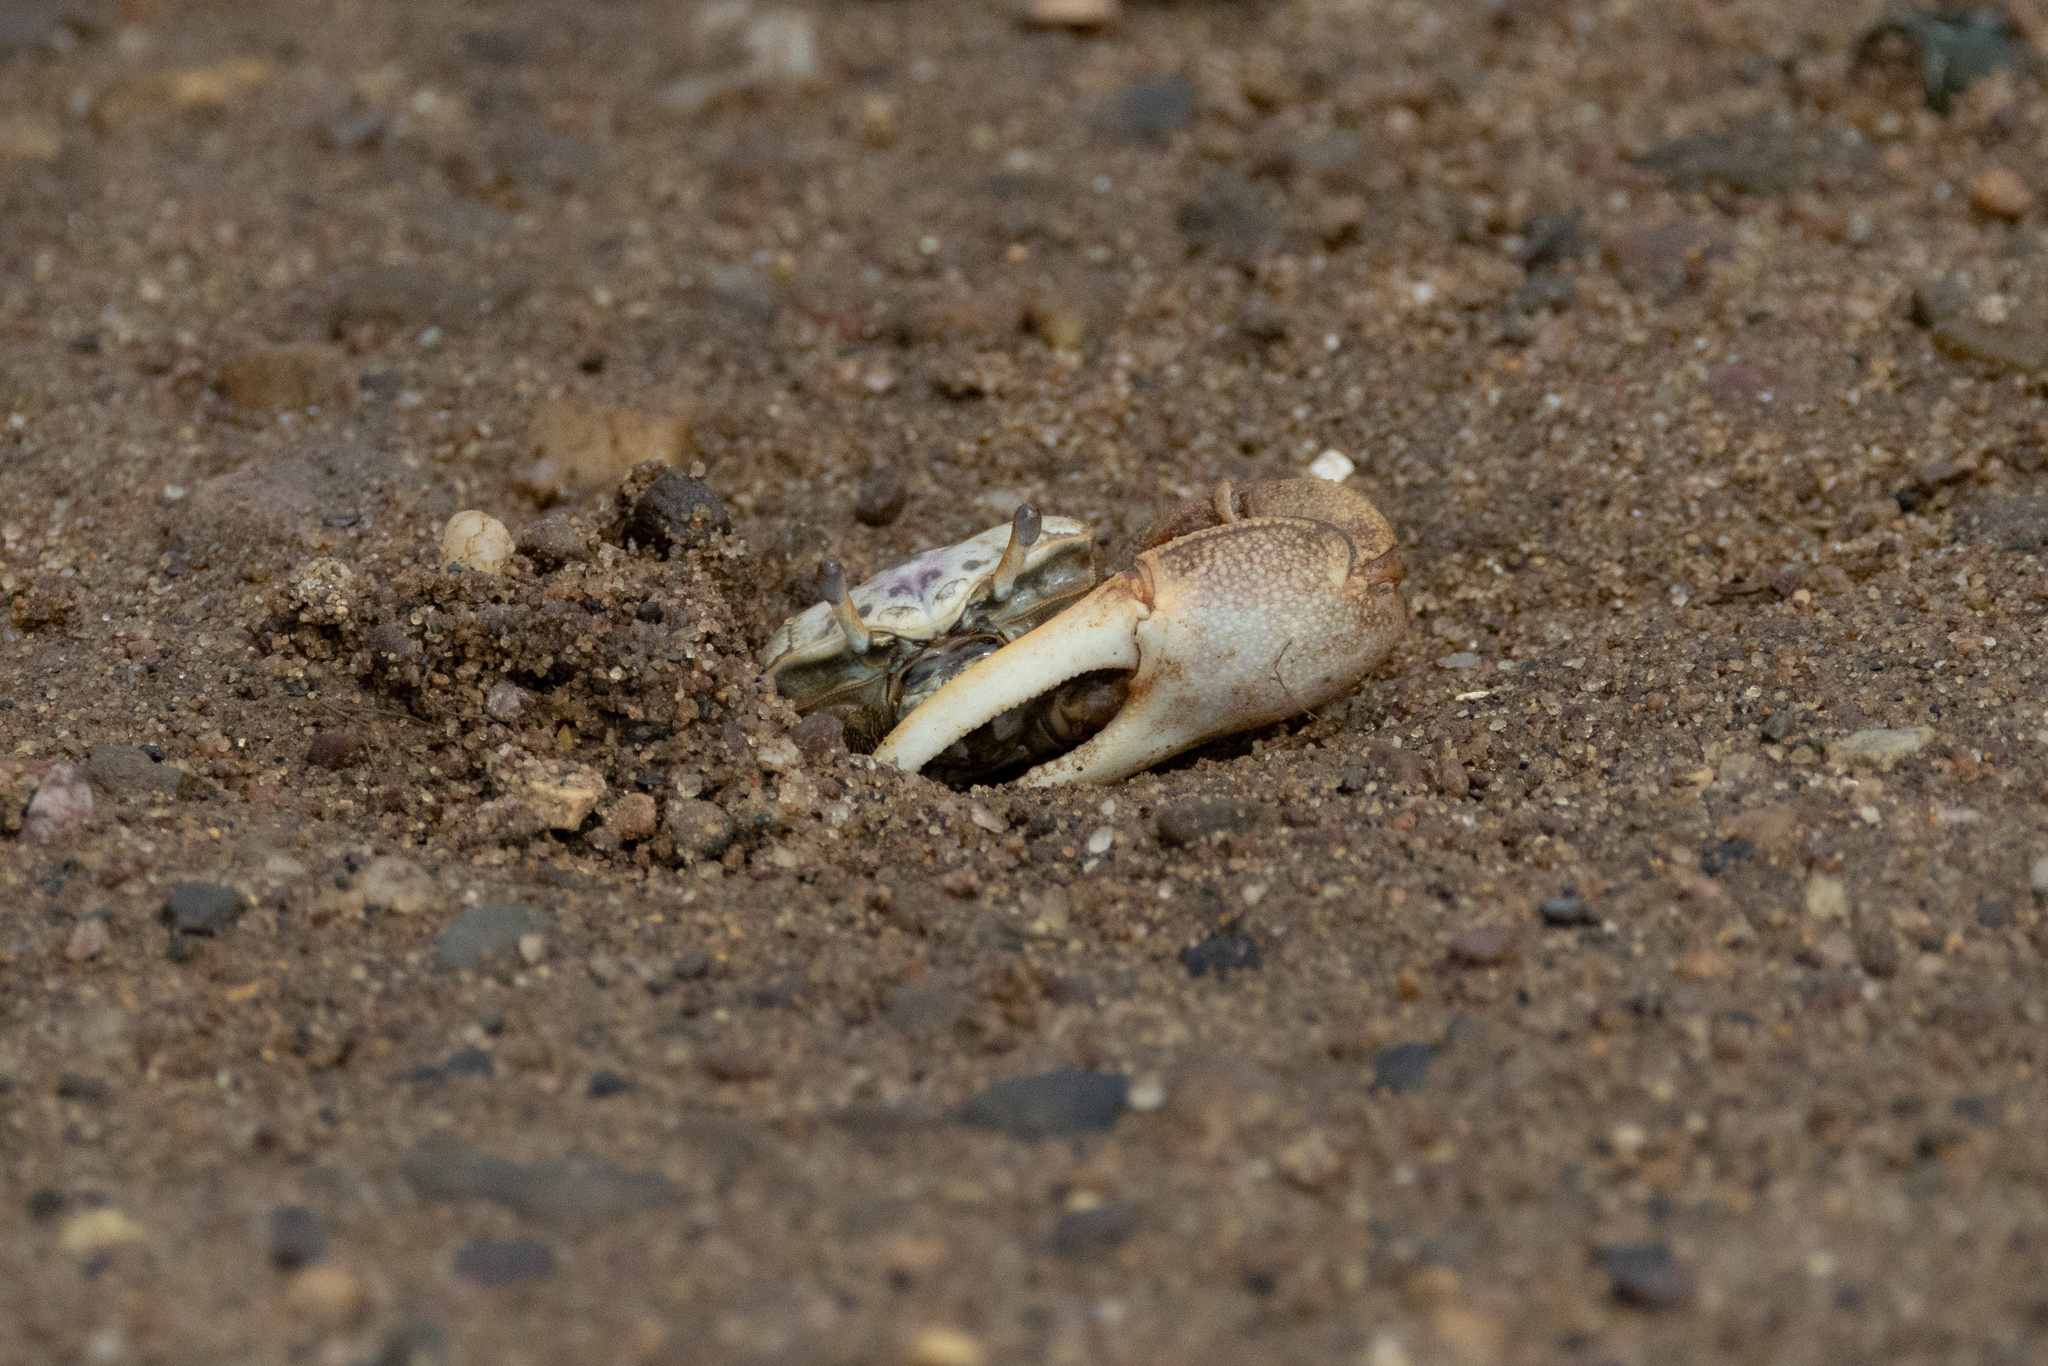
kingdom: Animalia
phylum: Arthropoda
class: Malacostraca
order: Decapoda
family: Ocypodidae
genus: Leptuca
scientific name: Leptuca pugilator
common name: Atlantic sand fiddler crab
